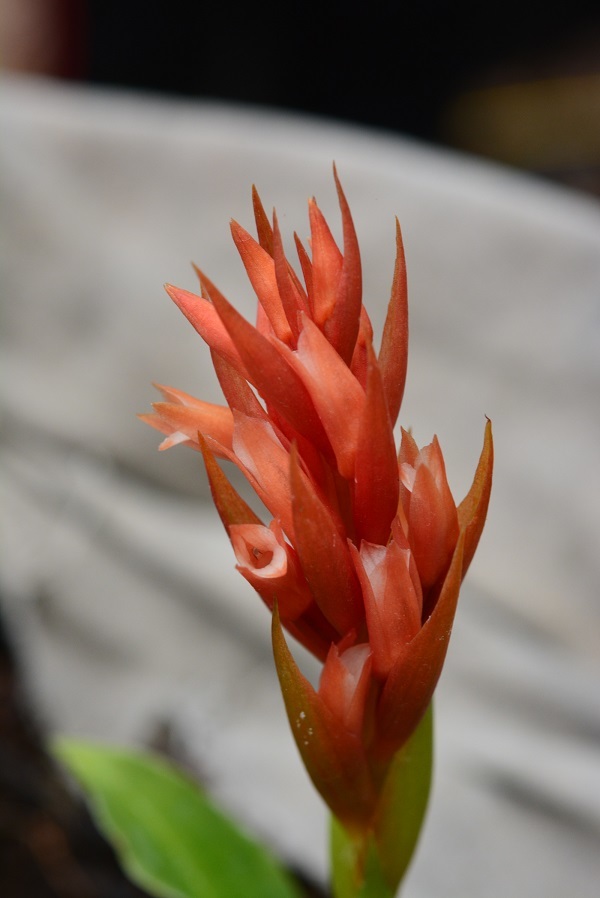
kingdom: Plantae
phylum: Tracheophyta
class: Liliopsida
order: Asparagales
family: Orchidaceae
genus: Stenorrhynchos
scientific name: Stenorrhynchos glicensteinii
